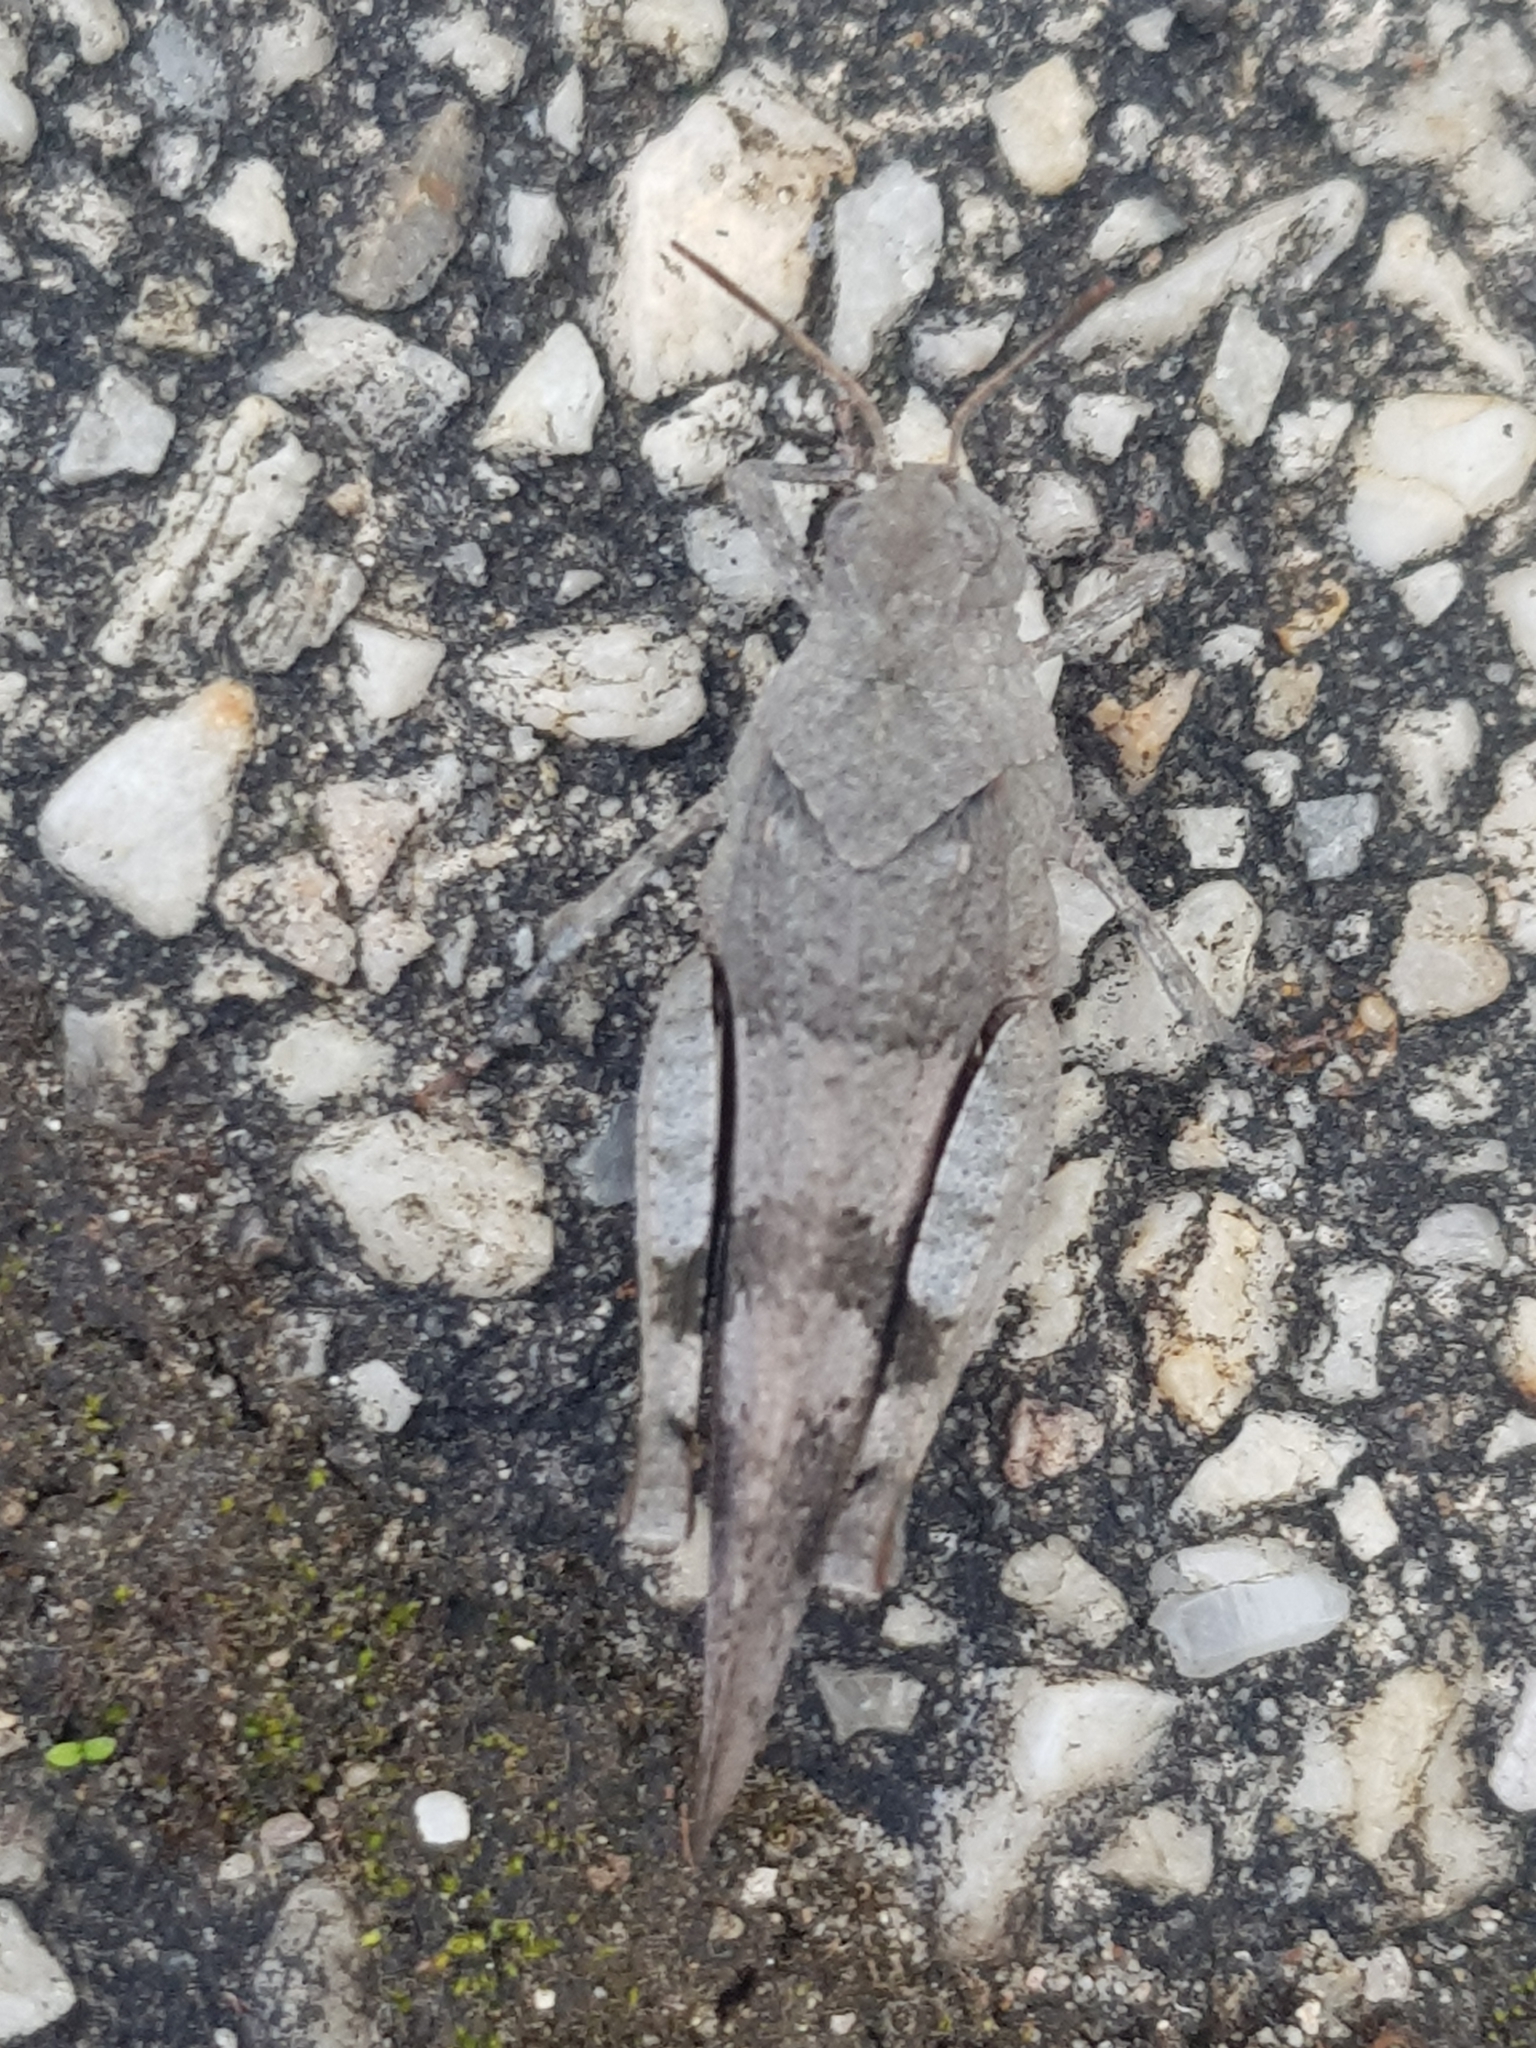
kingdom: Animalia
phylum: Arthropoda
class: Insecta
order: Orthoptera
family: Acrididae
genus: Oedipoda
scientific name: Oedipoda caerulescens
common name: Blue-winged grasshopper
